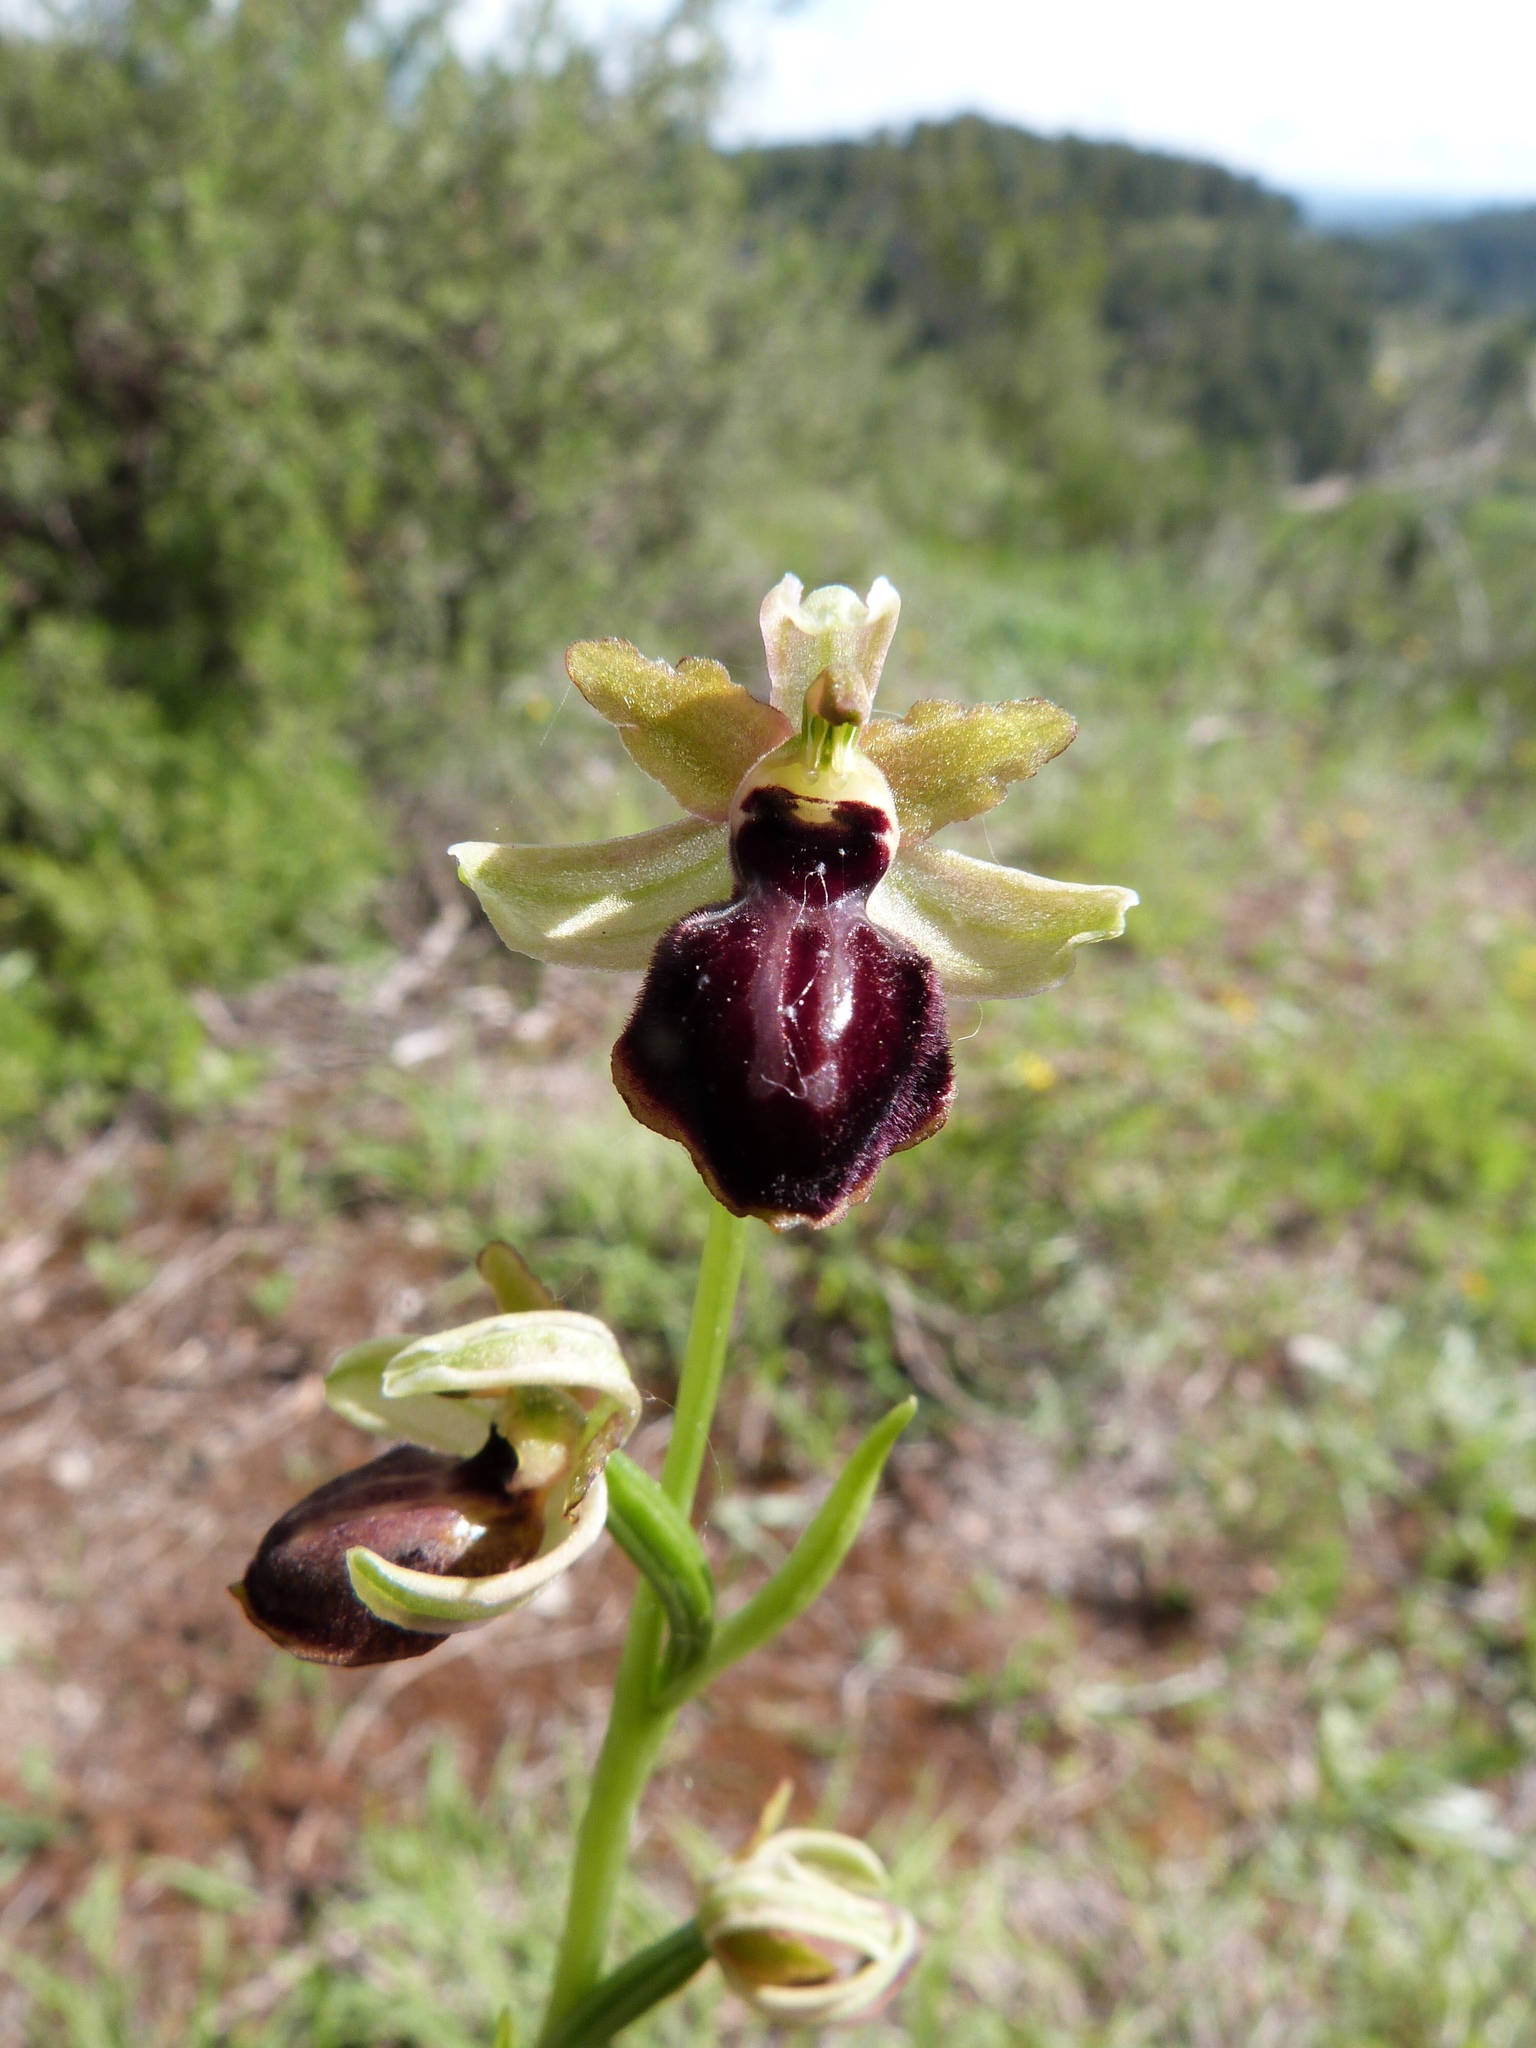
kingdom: Plantae
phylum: Tracheophyta
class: Liliopsida
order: Asparagales
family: Orchidaceae
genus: Ophrys
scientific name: Ophrys sphegodes
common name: Early spider-orchid
